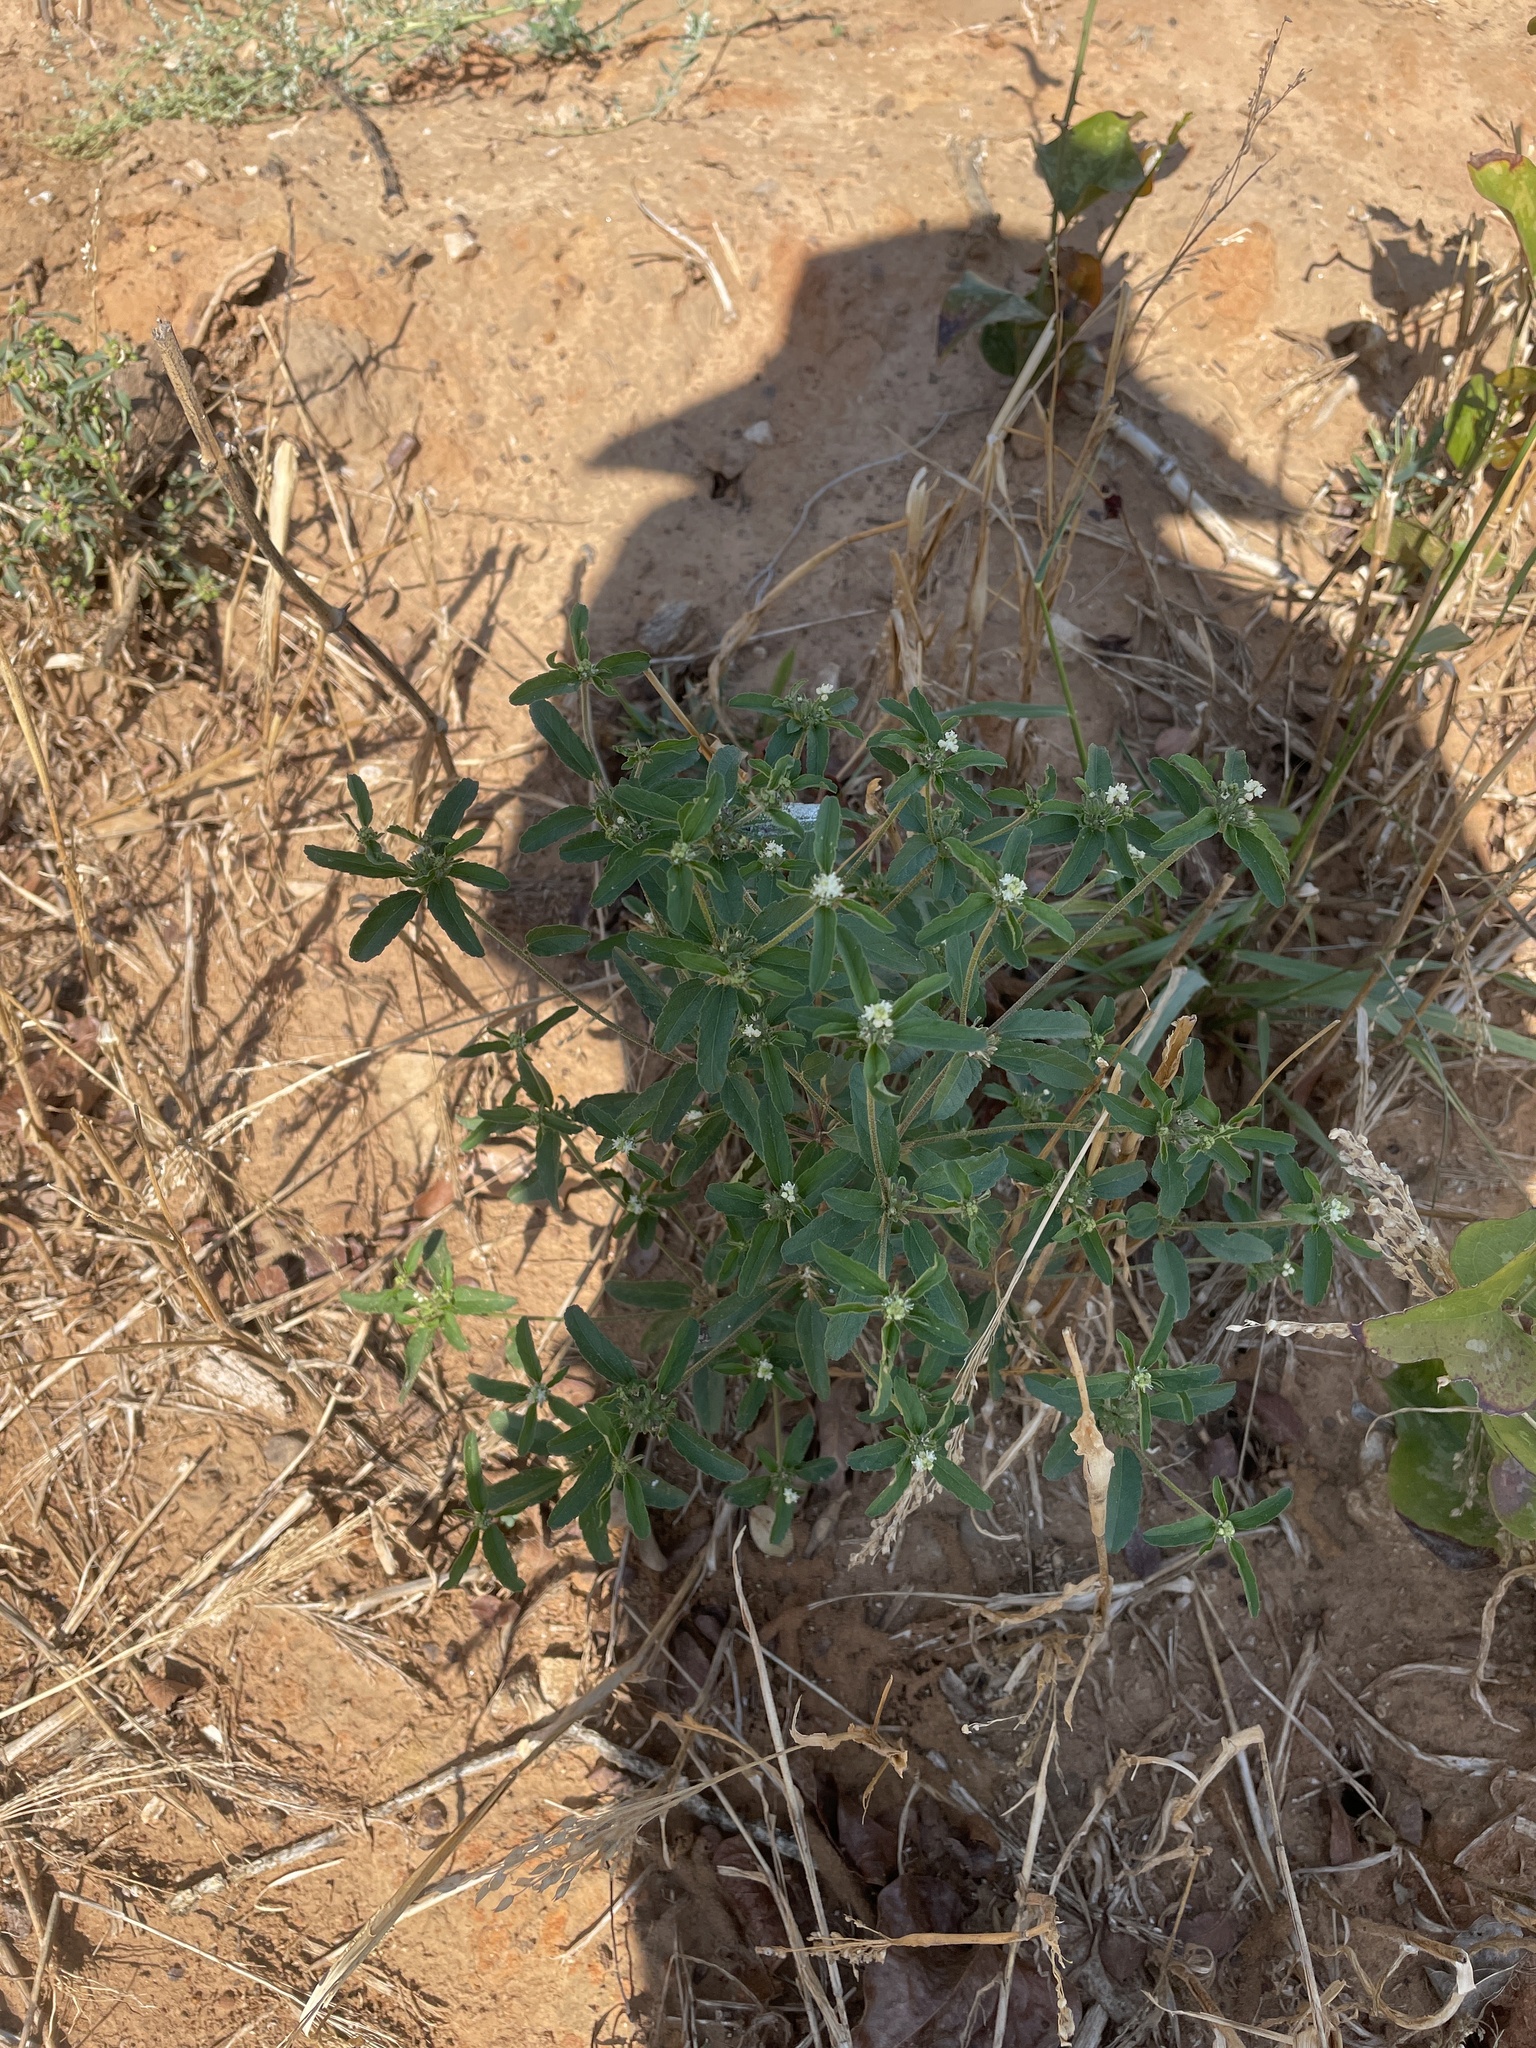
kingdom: Plantae
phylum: Tracheophyta
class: Magnoliopsida
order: Malpighiales
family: Euphorbiaceae
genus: Croton
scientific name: Croton glandulosus
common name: Tropic croton
